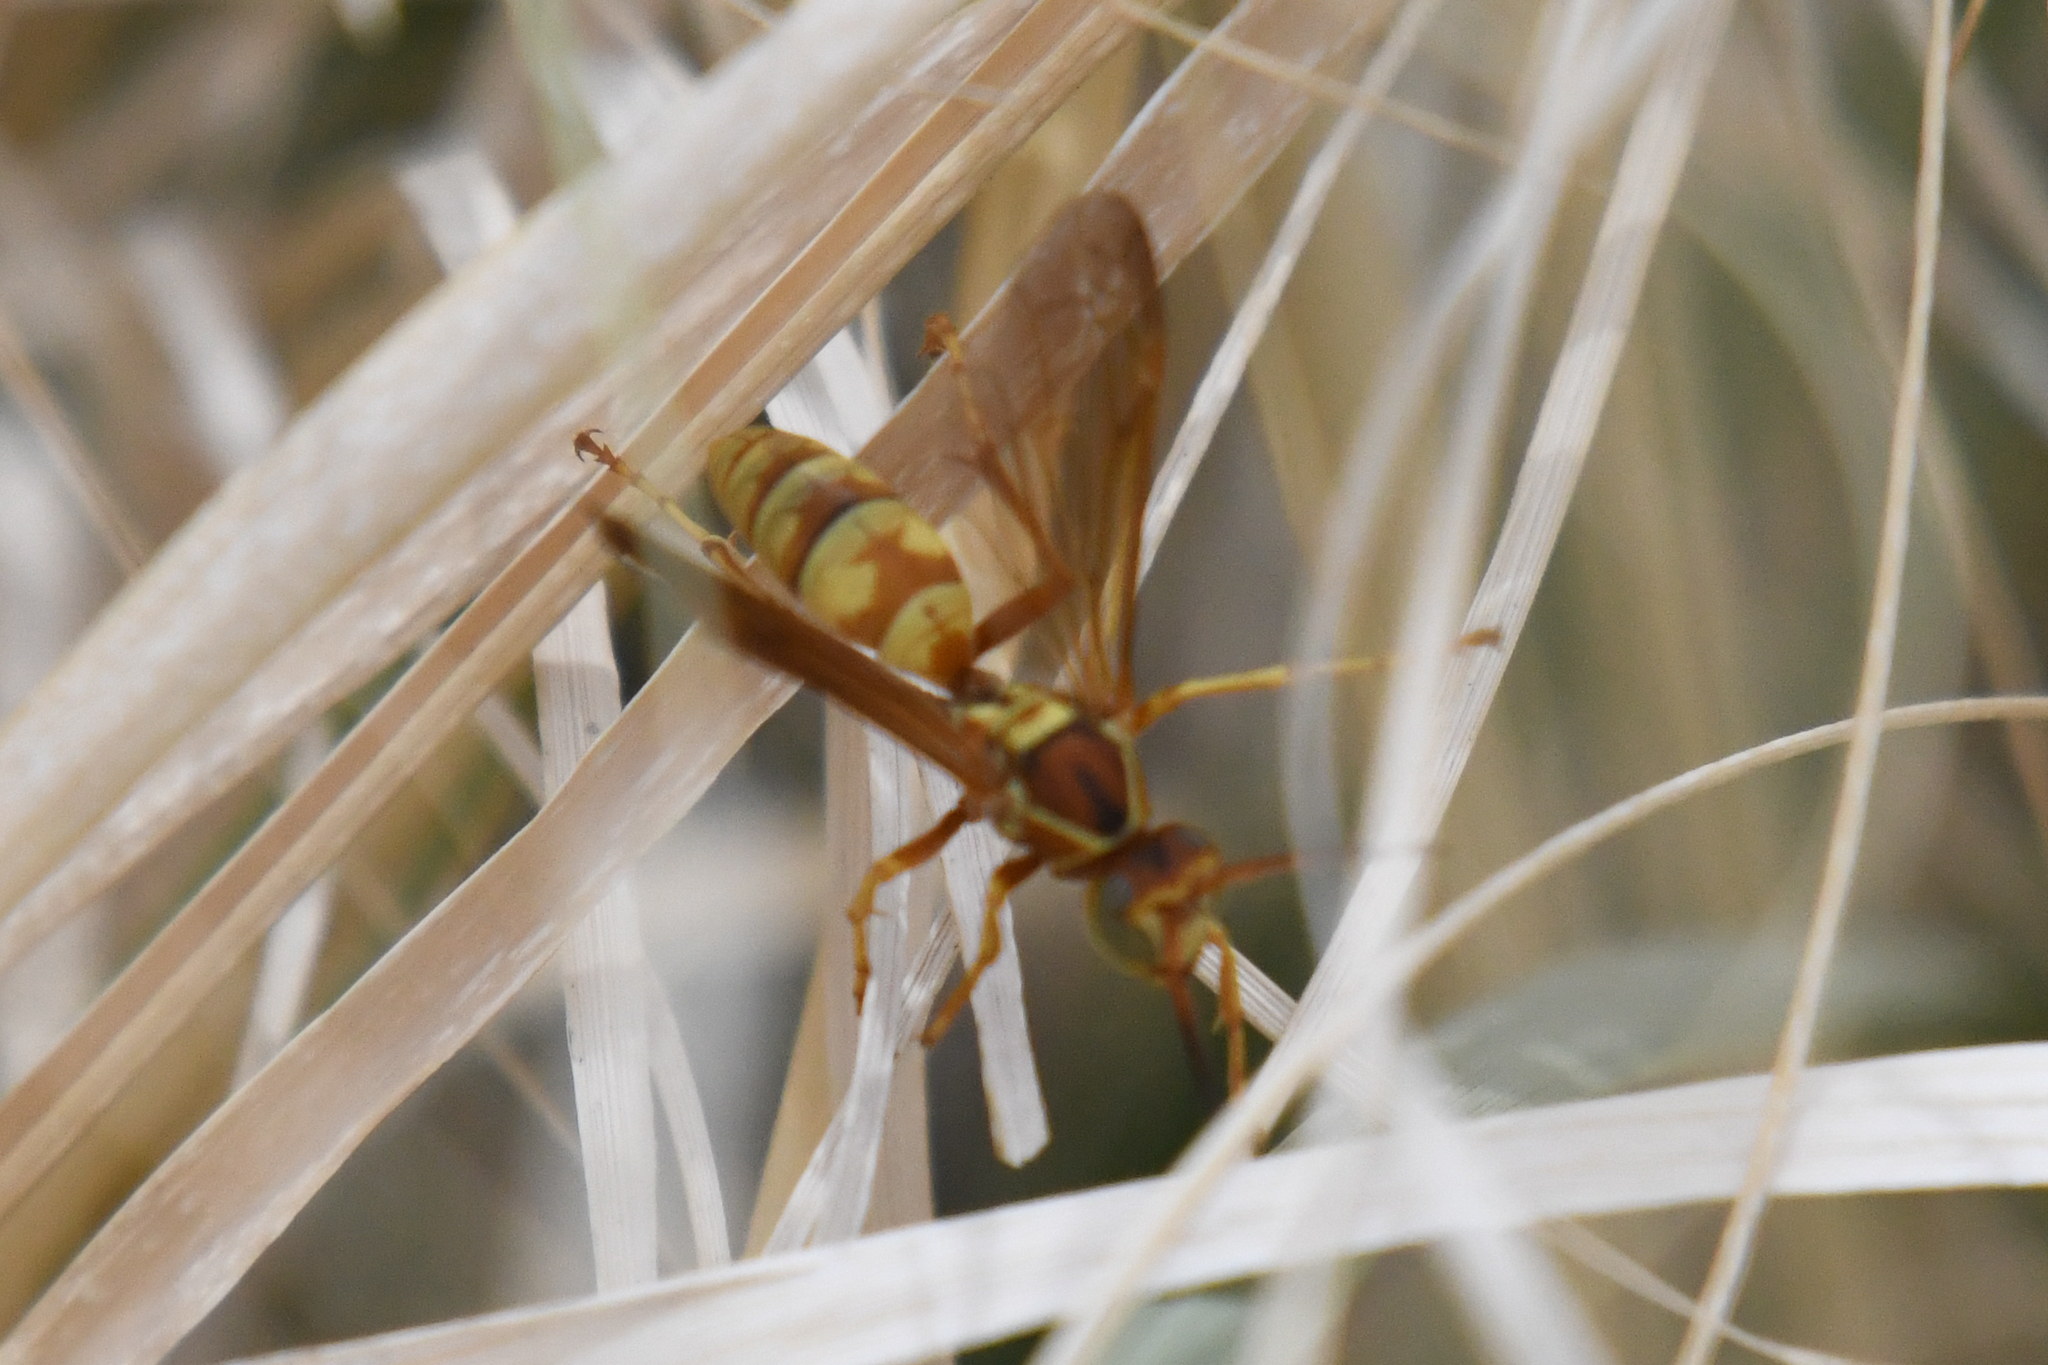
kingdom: Animalia
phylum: Arthropoda
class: Insecta
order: Hymenoptera
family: Eumenidae
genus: Polistes
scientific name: Polistes aurifer
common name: Paper wasp
